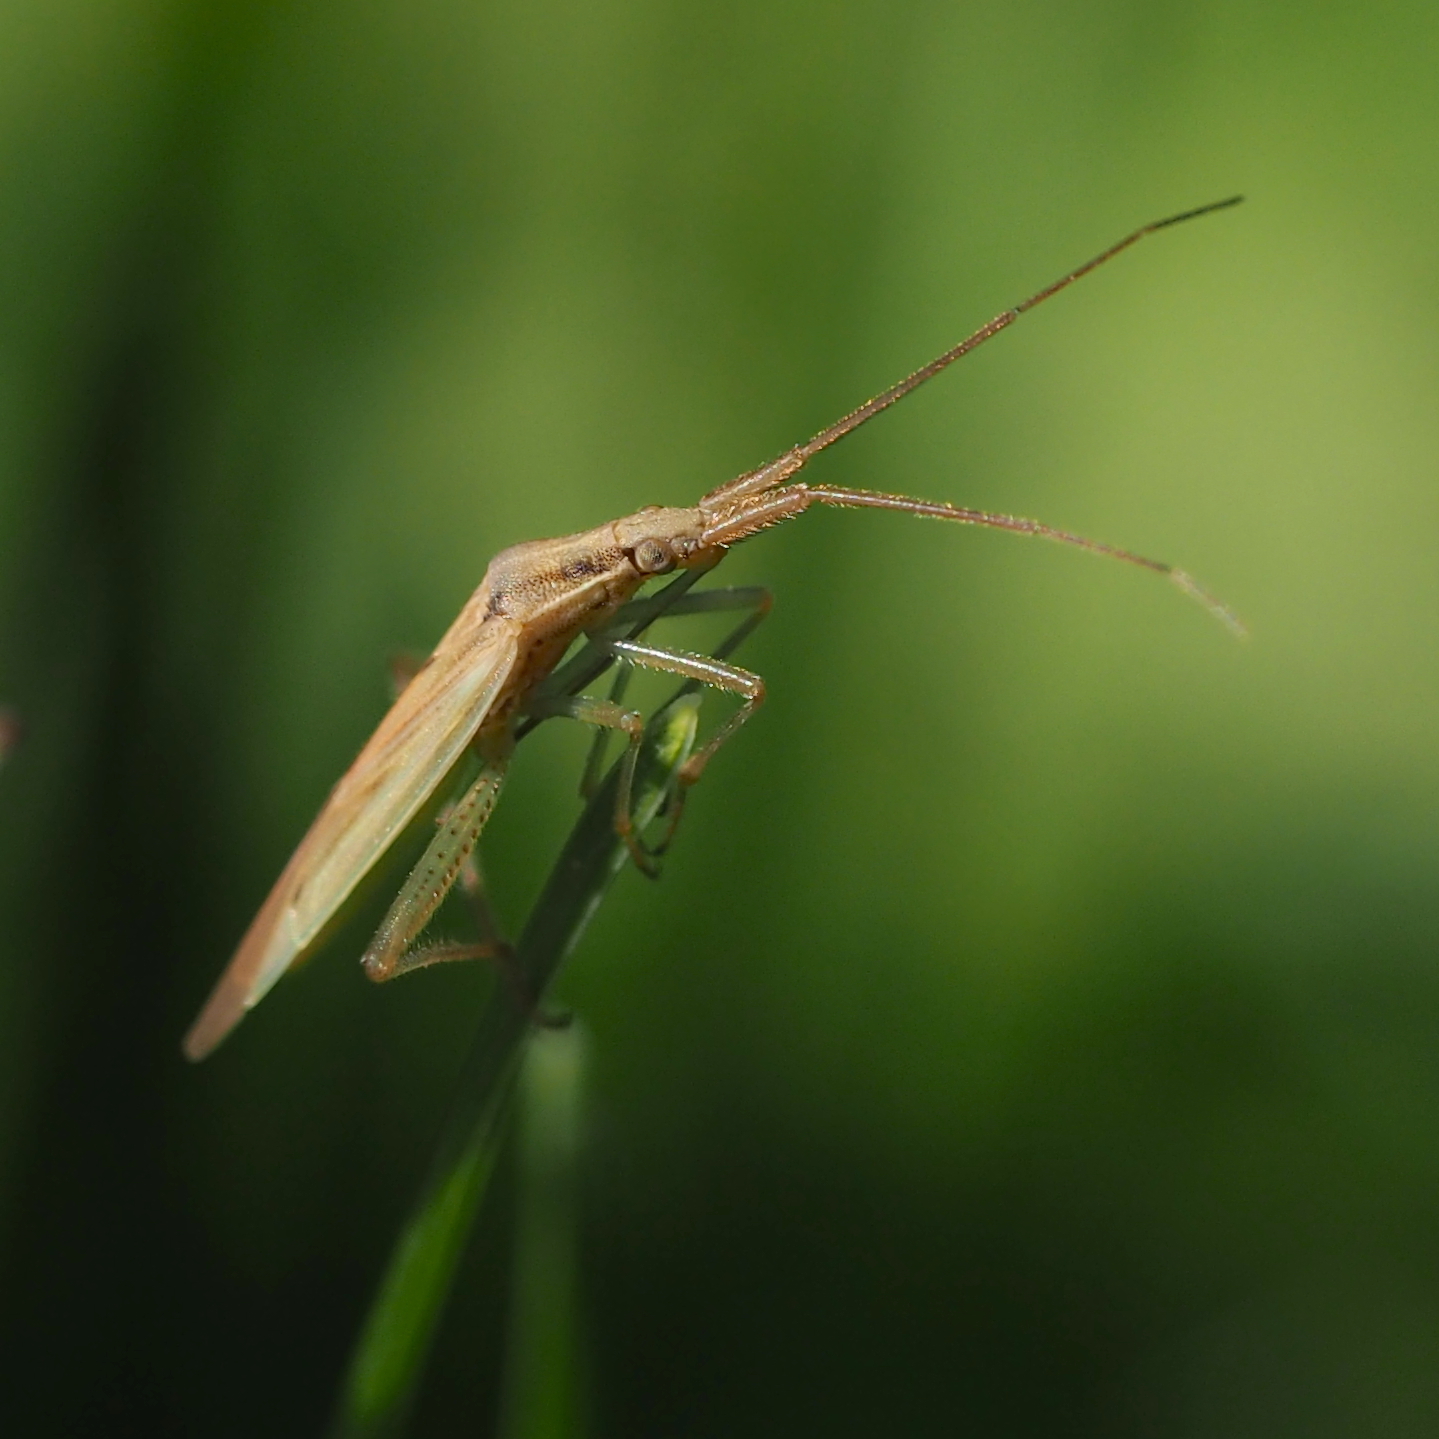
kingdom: Animalia
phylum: Arthropoda
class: Insecta
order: Hemiptera
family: Miridae
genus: Stenodema
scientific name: Stenodema laevigata
